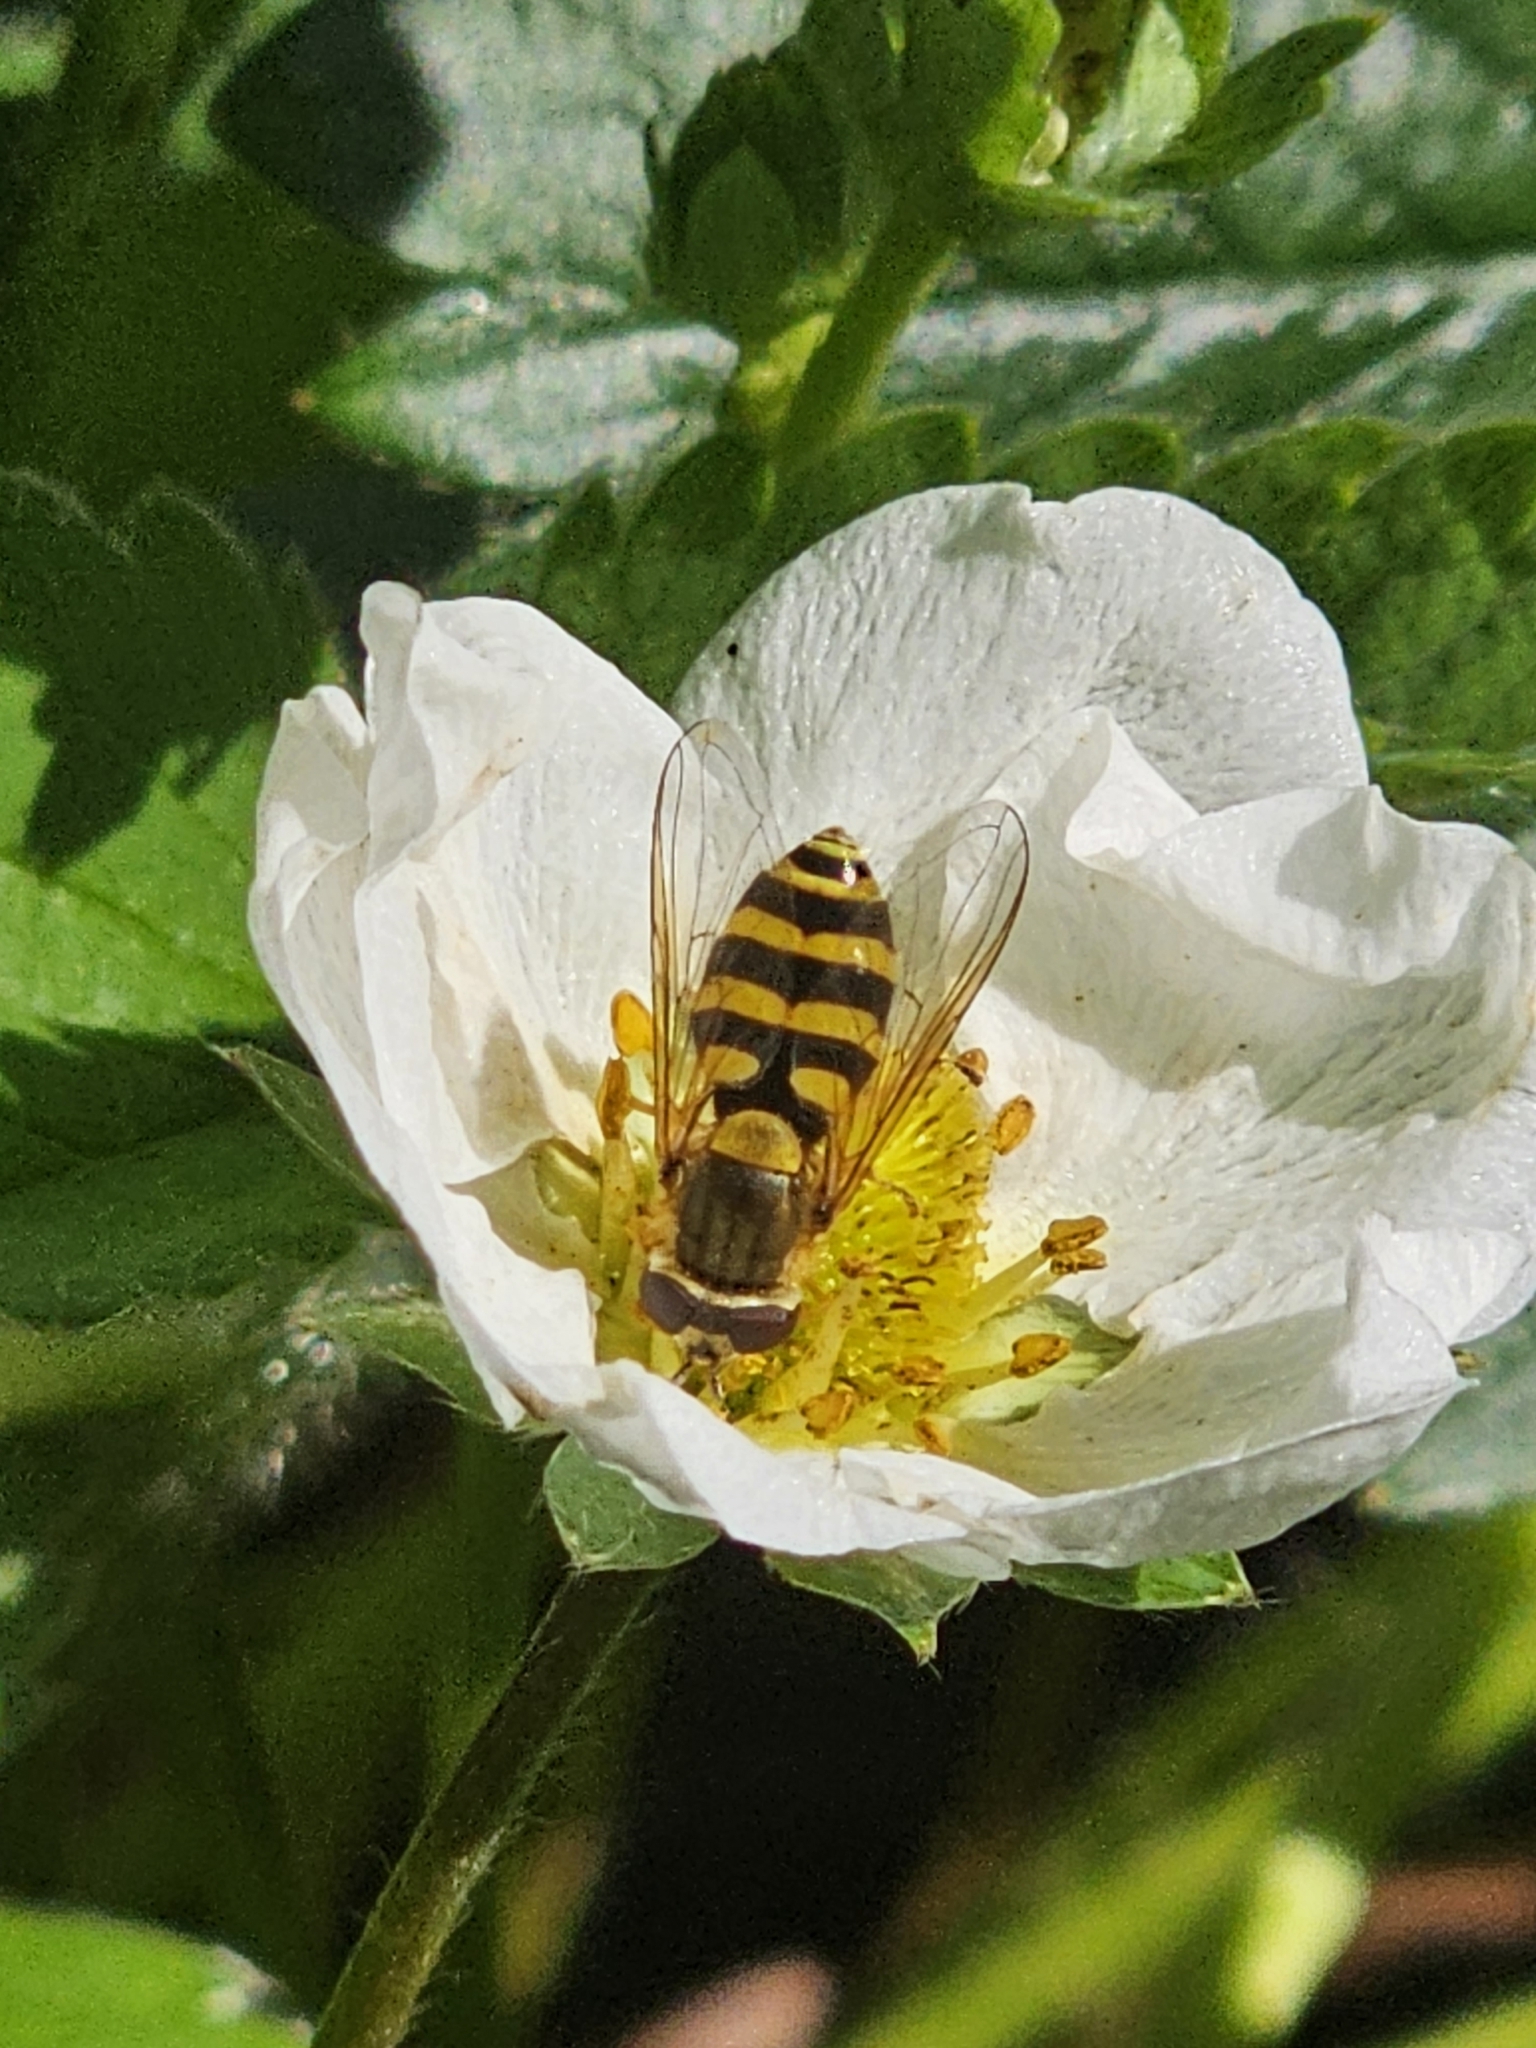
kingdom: Animalia
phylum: Arthropoda
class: Insecta
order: Diptera
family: Syrphidae
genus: Syrphus
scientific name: Syrphus
